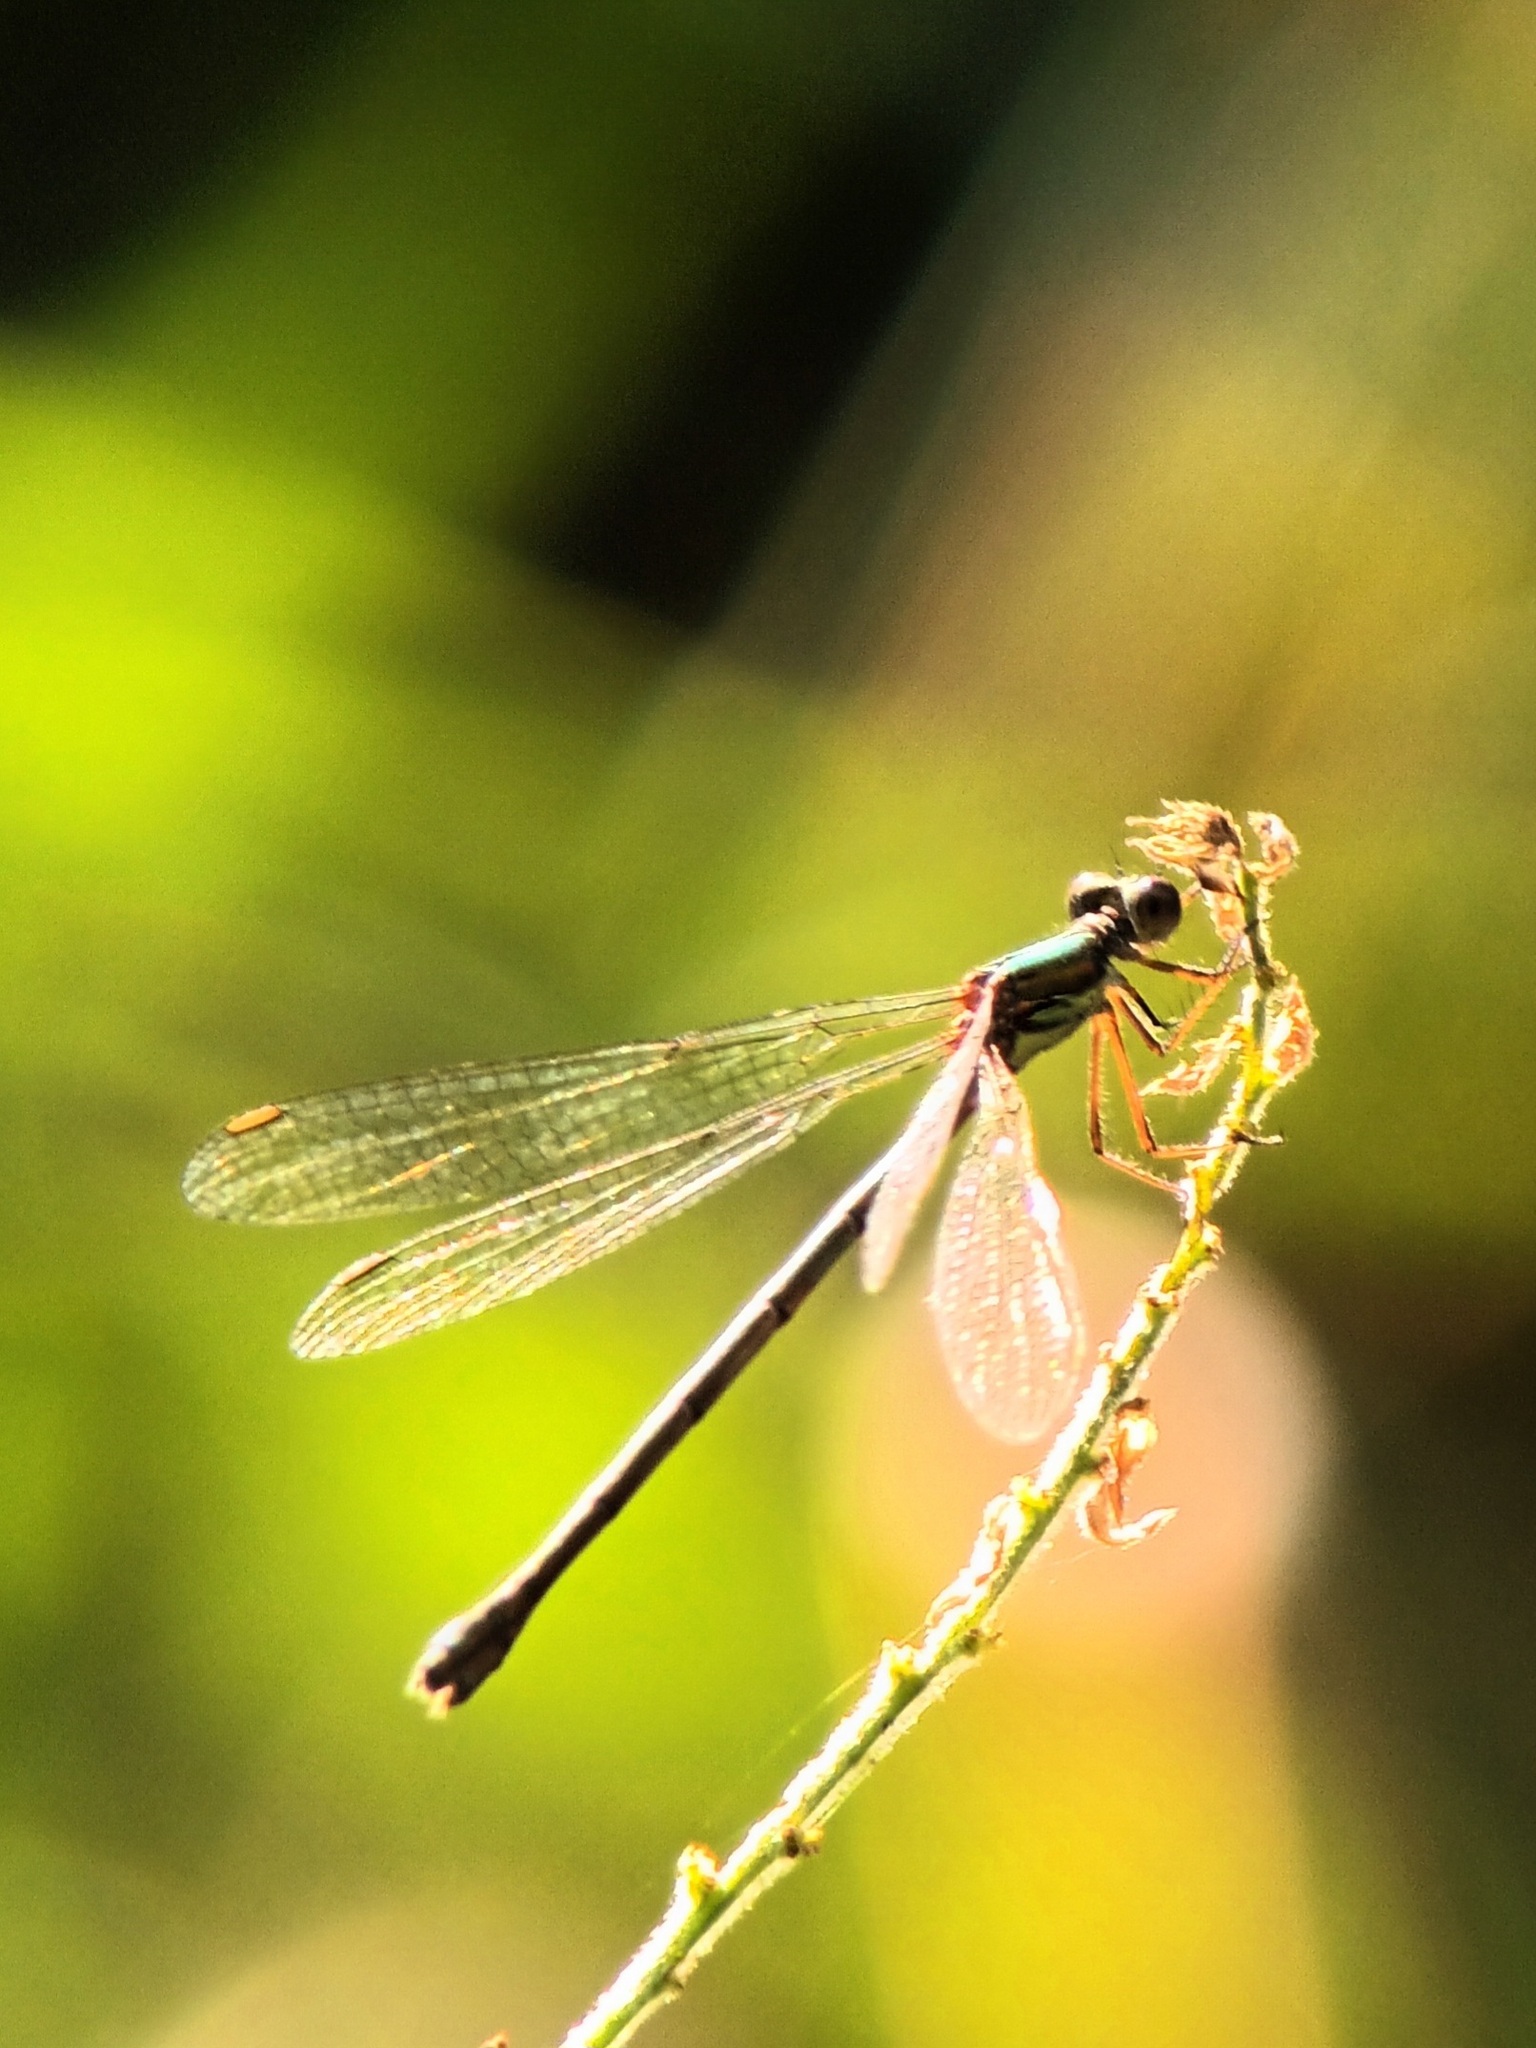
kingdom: Animalia
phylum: Arthropoda
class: Insecta
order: Odonata
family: Lestidae
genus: Chalcolestes
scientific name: Chalcolestes viridis
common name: Green emerald damselfly
